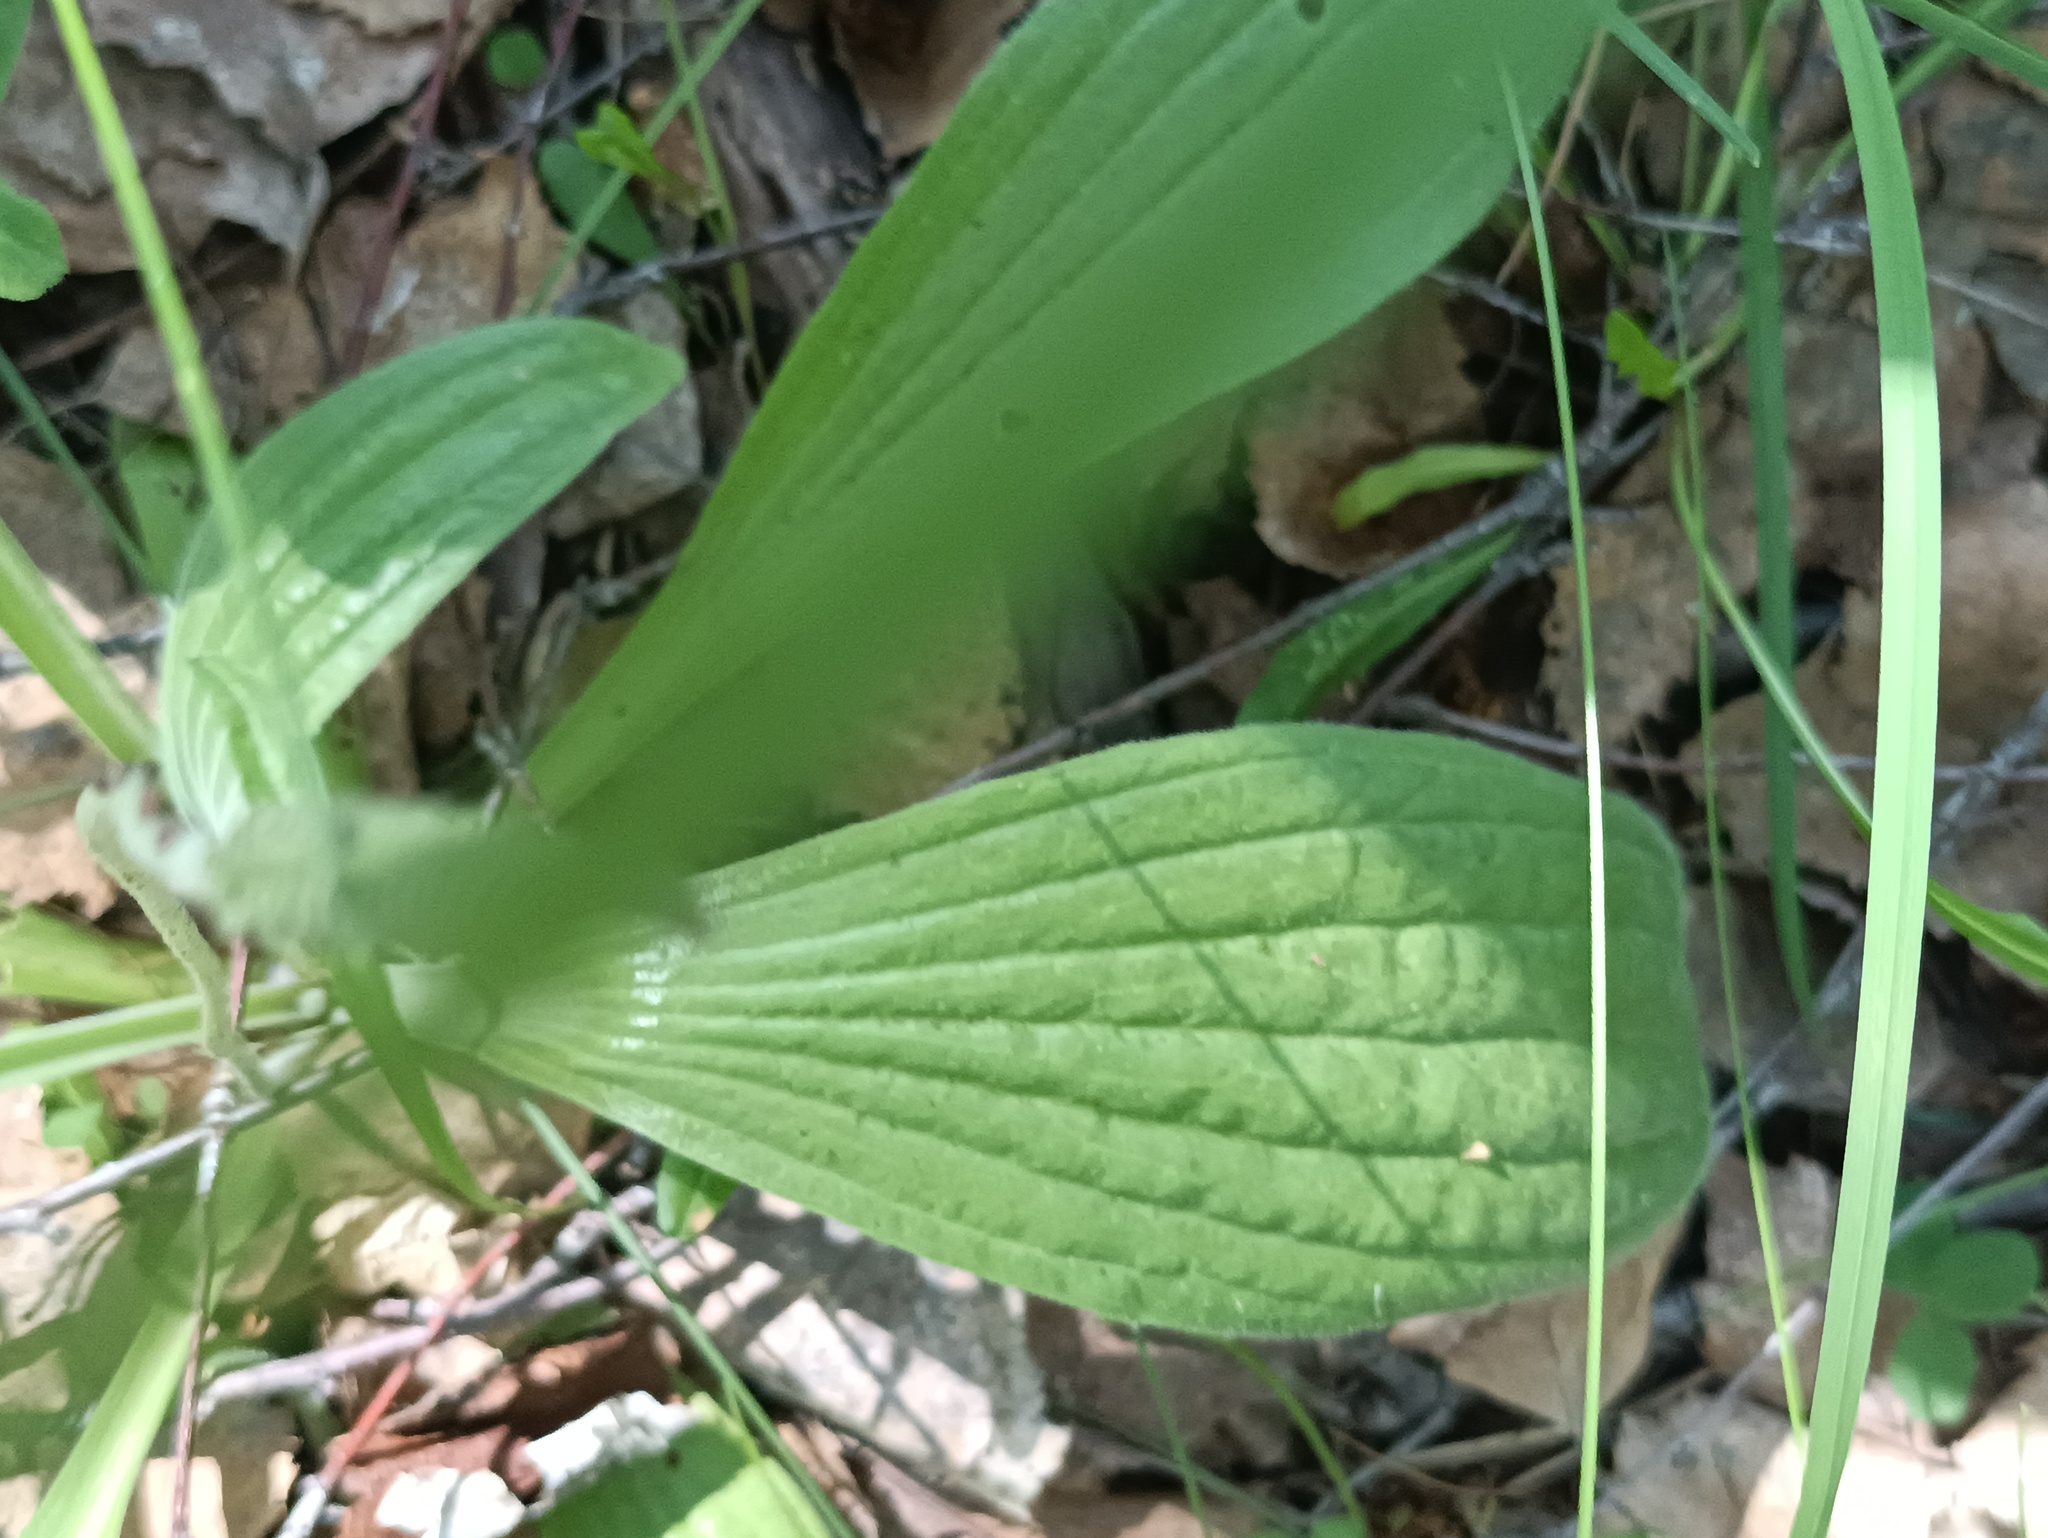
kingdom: Plantae
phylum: Tracheophyta
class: Magnoliopsida
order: Lamiales
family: Plantaginaceae
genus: Plantago
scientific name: Plantago urvillei
